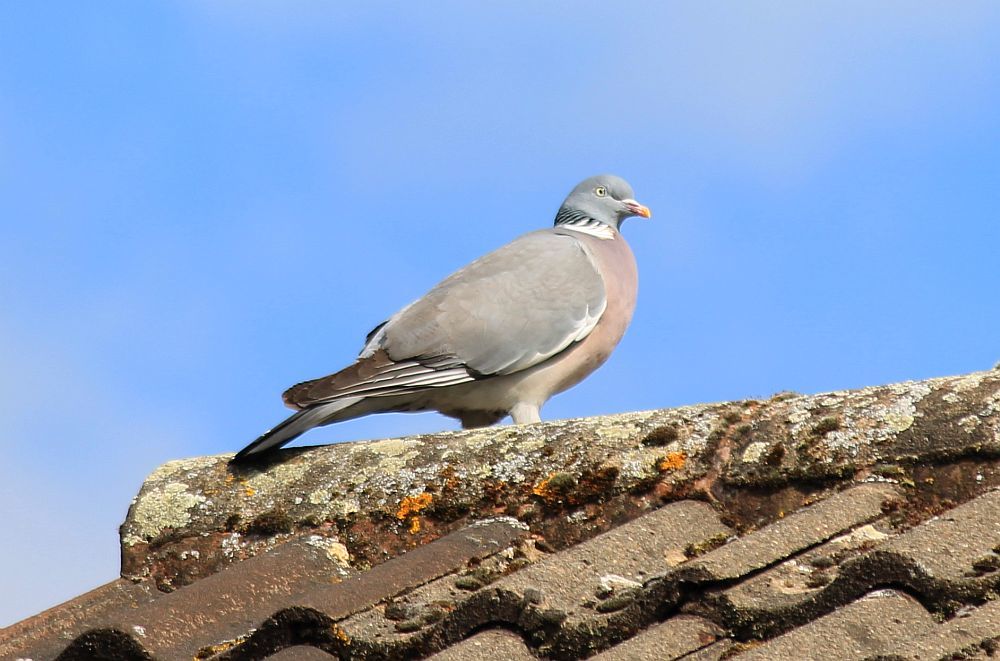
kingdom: Animalia
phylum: Chordata
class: Aves
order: Columbiformes
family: Columbidae
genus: Columba
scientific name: Columba palumbus
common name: Common wood pigeon
